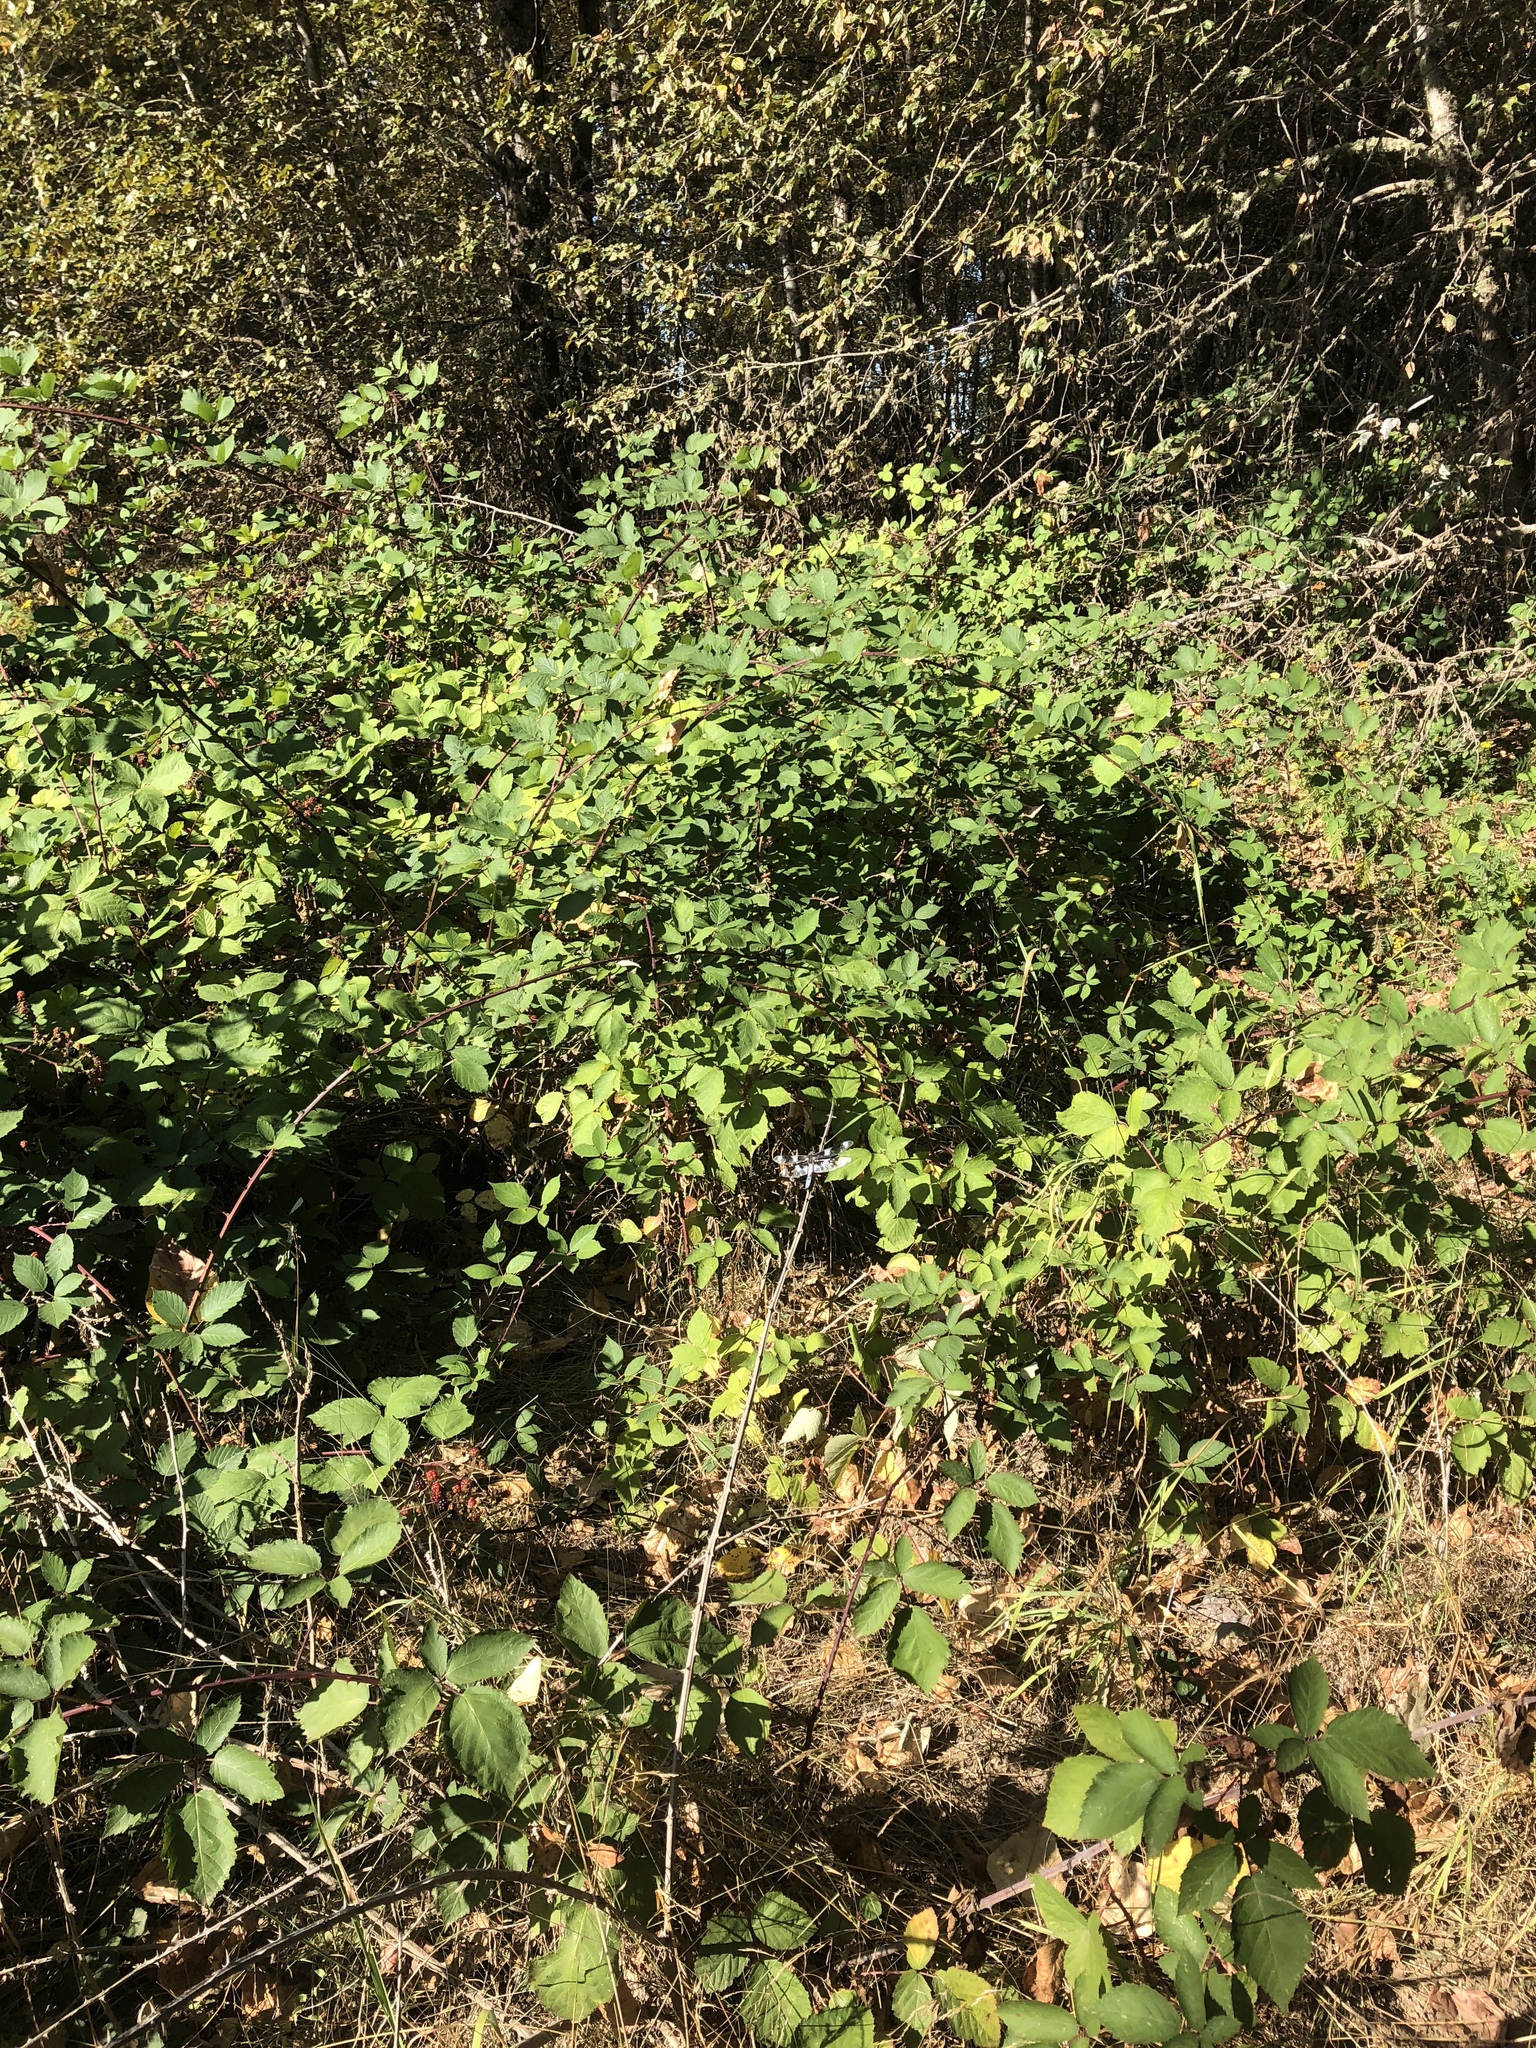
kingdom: Animalia
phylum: Arthropoda
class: Insecta
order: Odonata
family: Libellulidae
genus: Libellula
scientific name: Libellula forensis
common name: Eight-spotted skimmer
